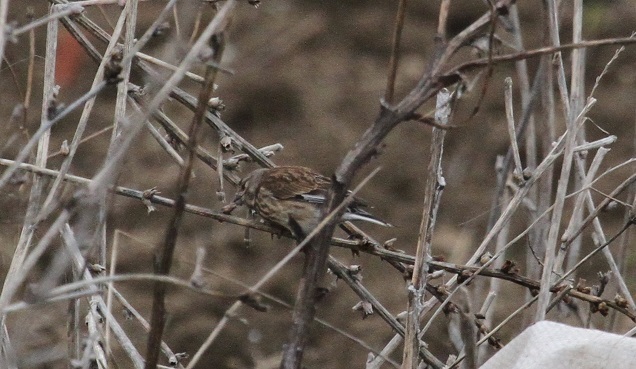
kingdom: Animalia
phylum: Chordata
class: Aves
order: Passeriformes
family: Fringillidae
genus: Linaria
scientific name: Linaria cannabina
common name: Common linnet
